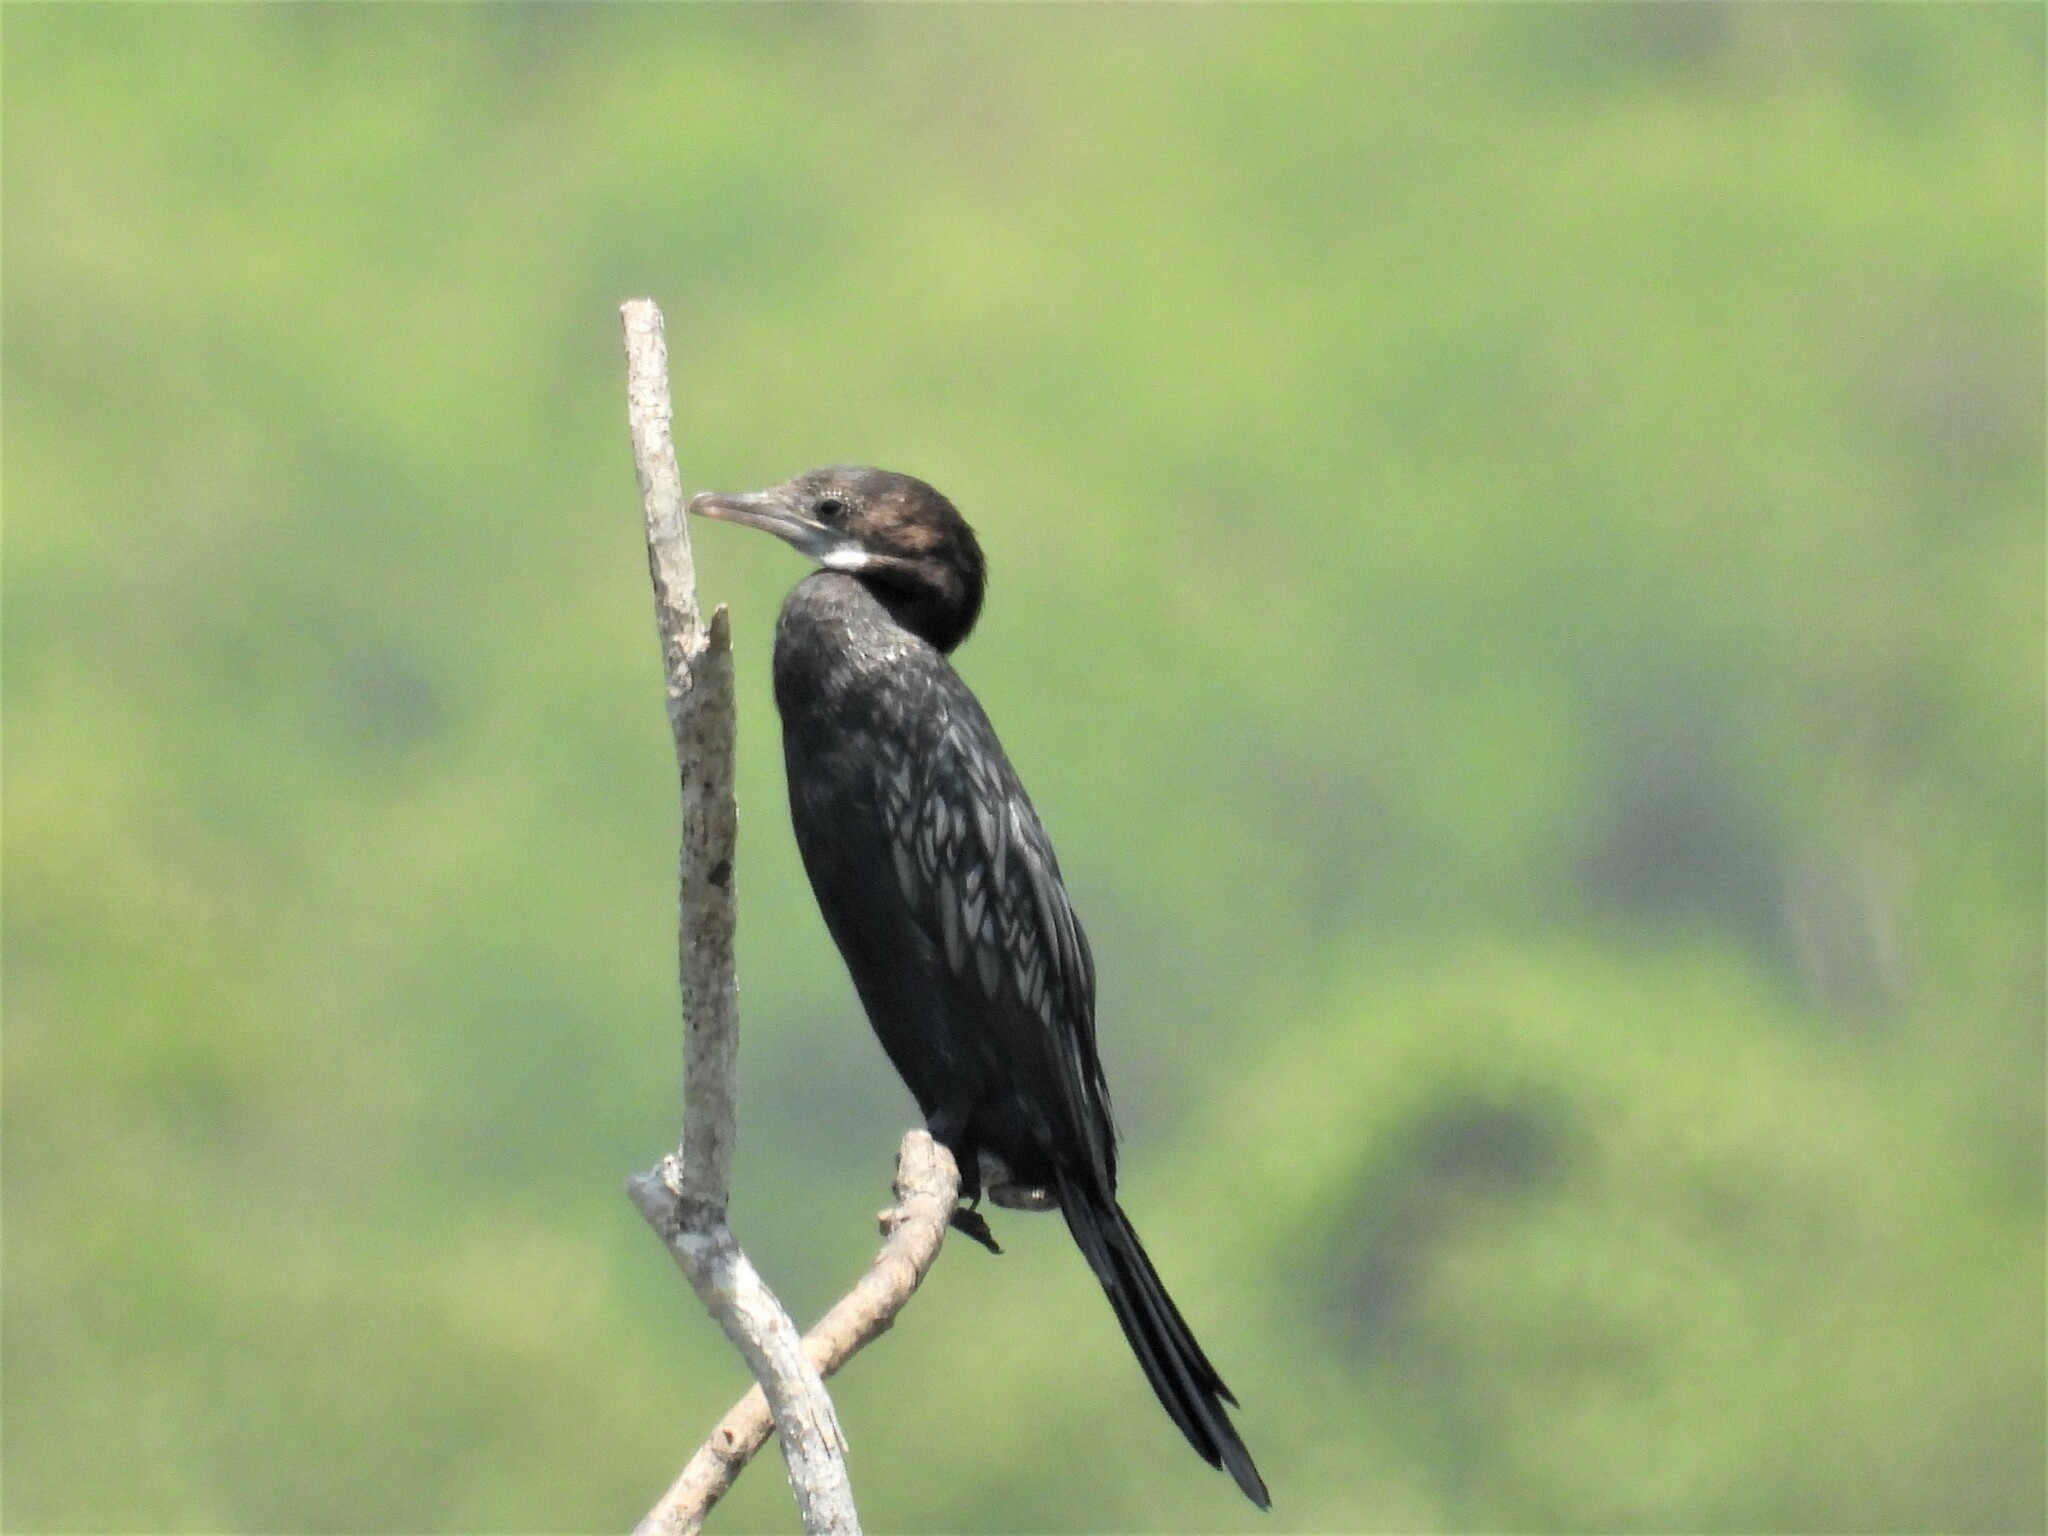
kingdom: Animalia
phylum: Chordata
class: Aves
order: Suliformes
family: Phalacrocoracidae
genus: Microcarbo
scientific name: Microcarbo niger
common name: Little cormorant
